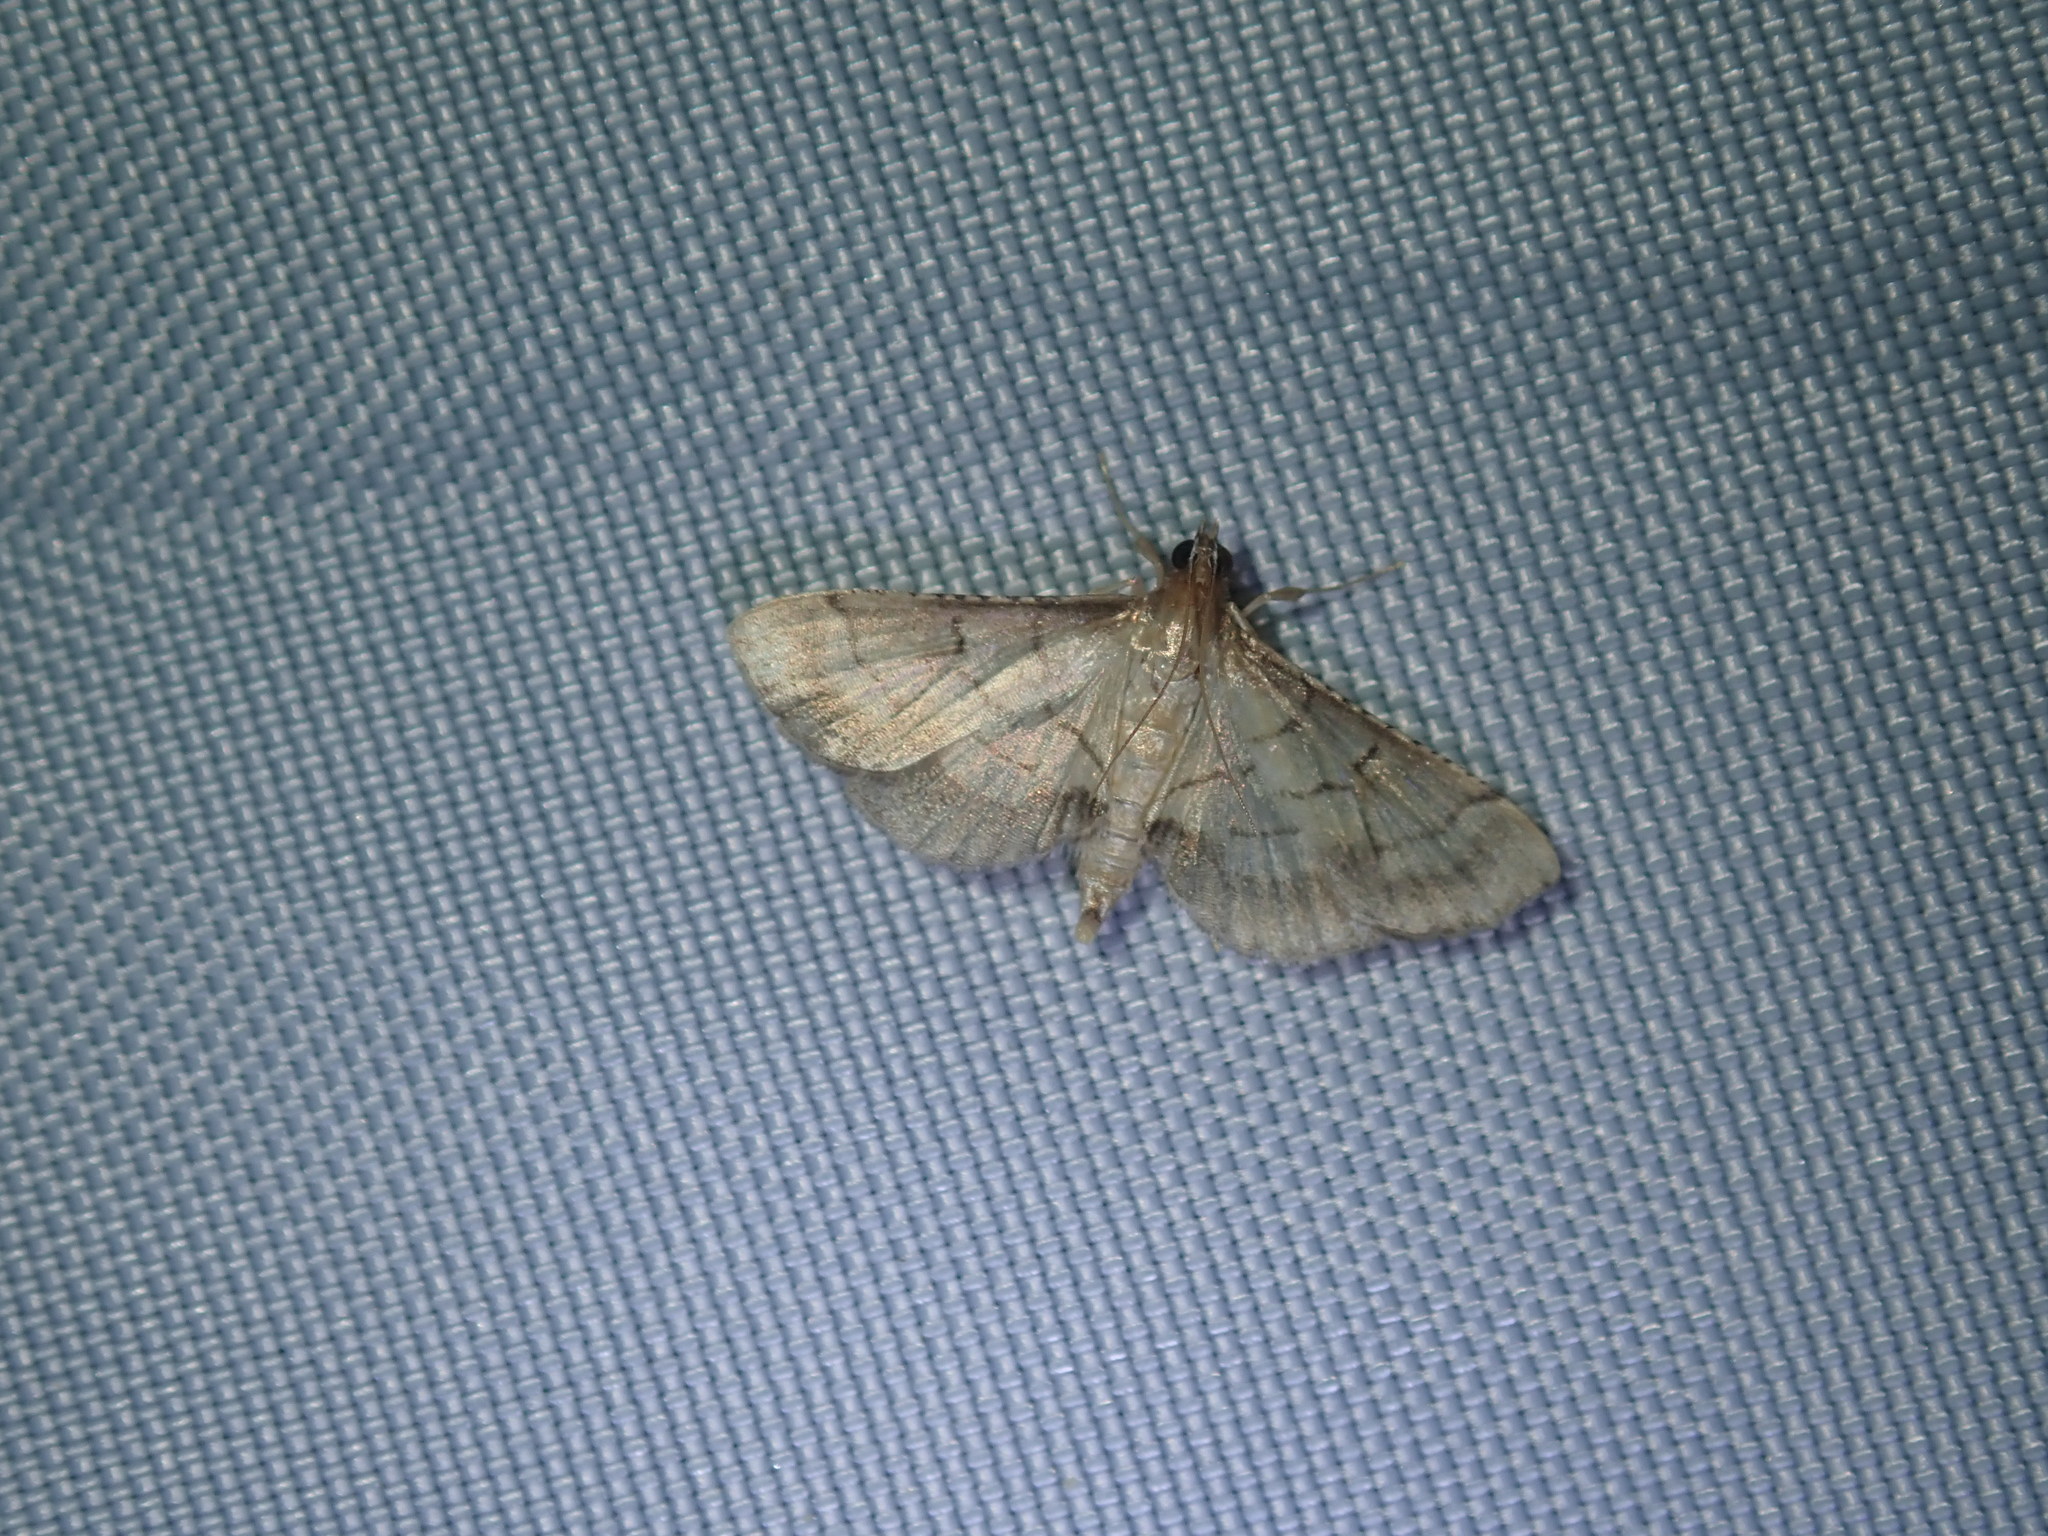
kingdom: Animalia
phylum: Arthropoda
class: Insecta
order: Lepidoptera
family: Crambidae
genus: Cnaphalocrocis
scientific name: Cnaphalocrocis poeyalis
